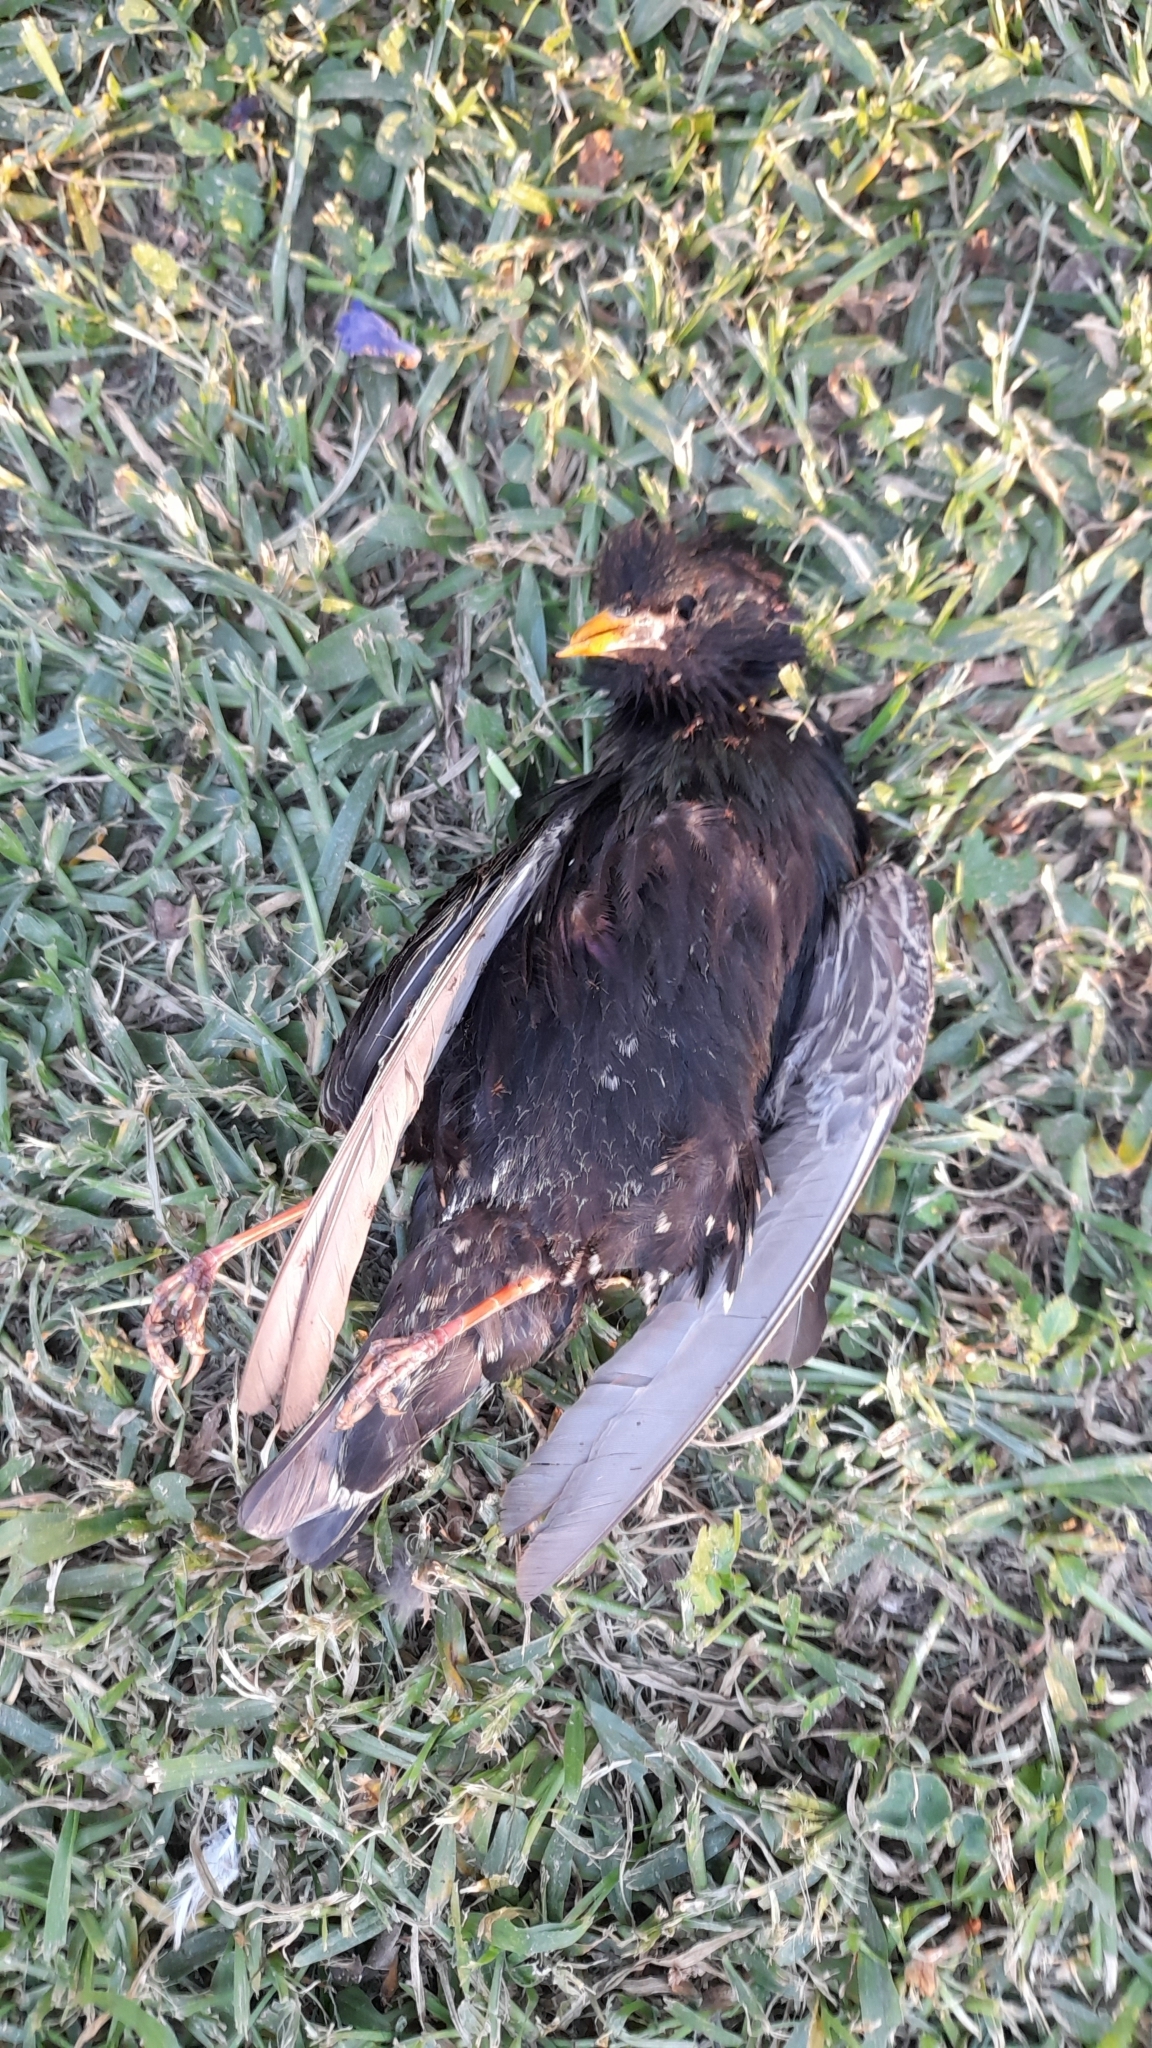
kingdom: Animalia
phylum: Chordata
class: Aves
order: Passeriformes
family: Sturnidae
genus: Sturnus
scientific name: Sturnus vulgaris
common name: Common starling
